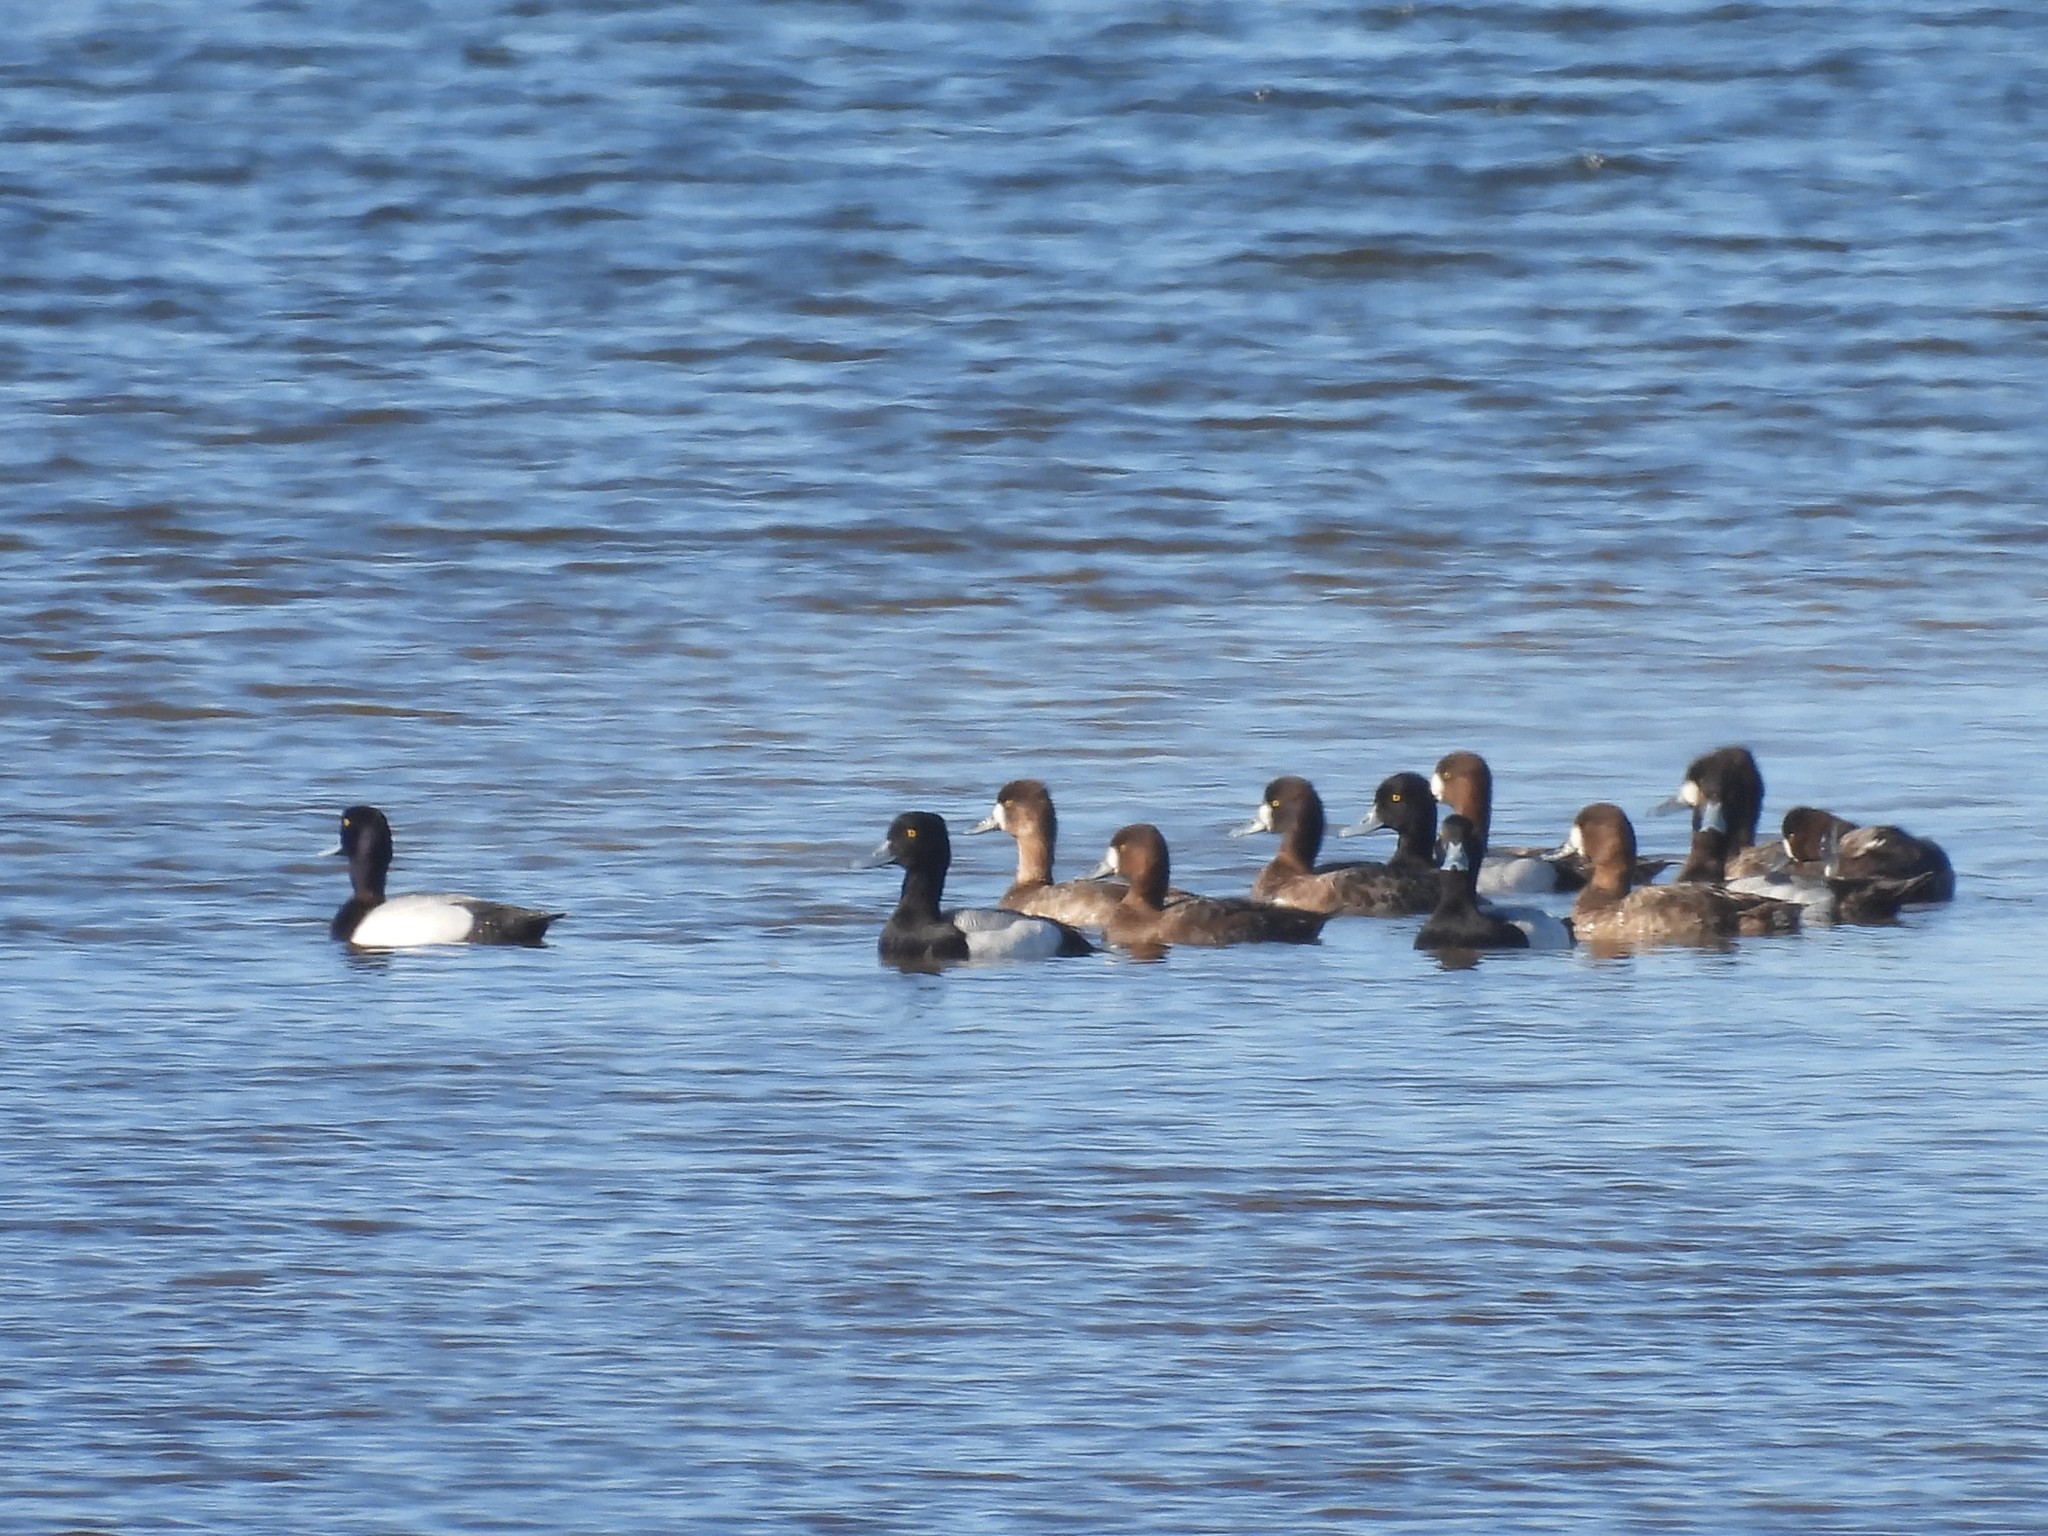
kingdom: Animalia
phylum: Chordata
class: Aves
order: Anseriformes
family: Anatidae
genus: Aythya
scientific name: Aythya affinis
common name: Lesser scaup
